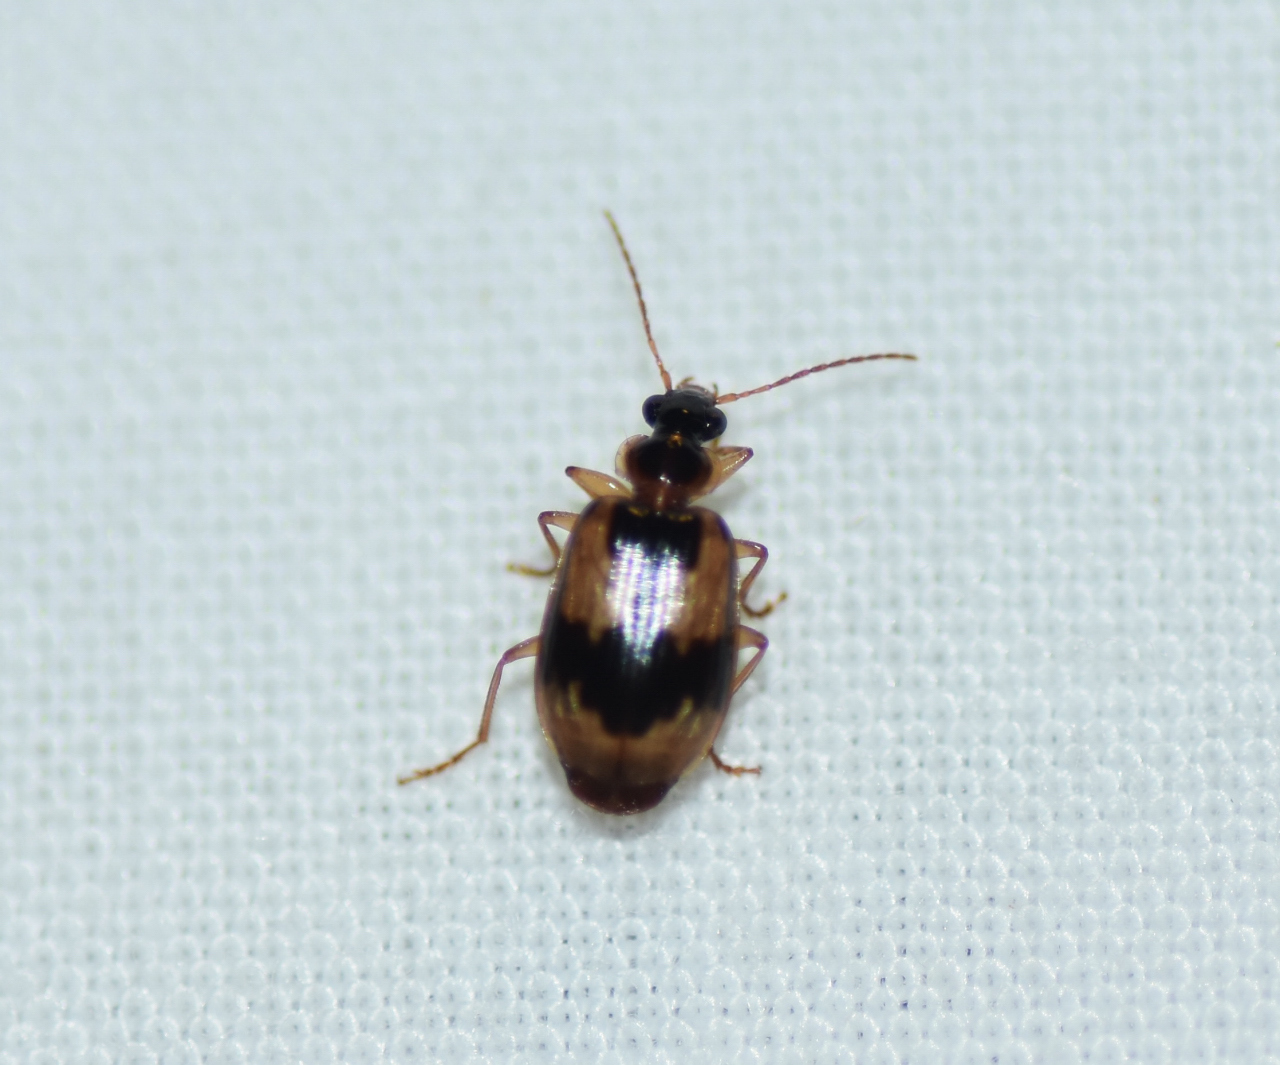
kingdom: Animalia
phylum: Arthropoda
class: Insecta
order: Coleoptera
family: Carabidae
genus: Lebia
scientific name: Lebia fuscata
